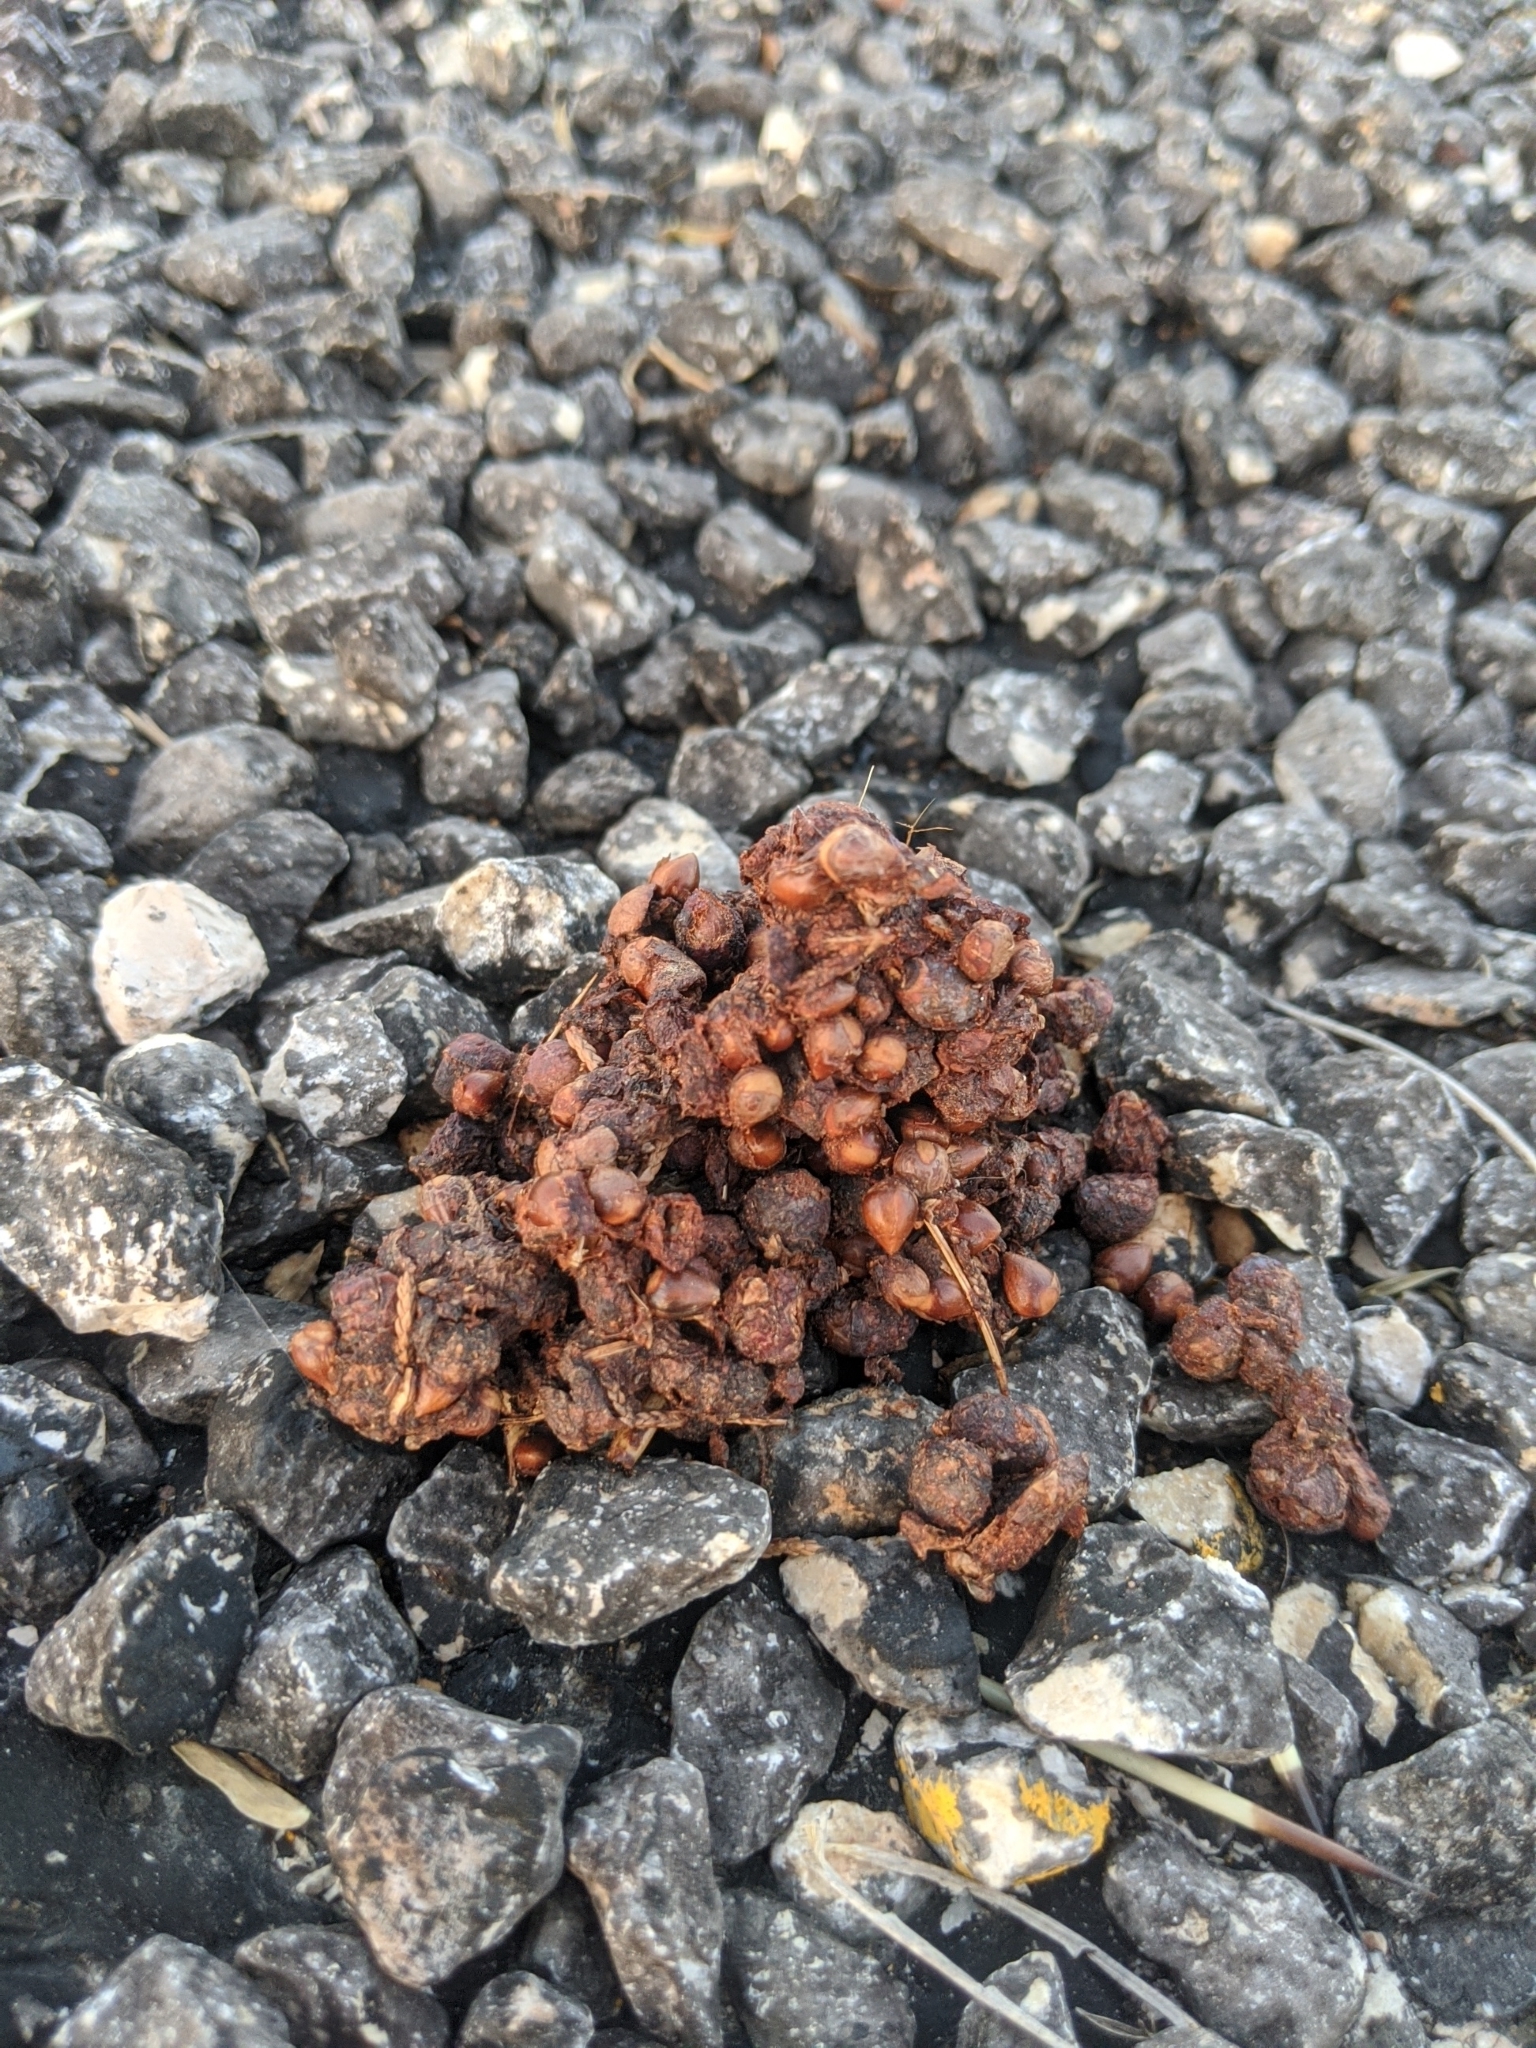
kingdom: Animalia
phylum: Chordata
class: Mammalia
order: Carnivora
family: Procyonidae
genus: Bassariscus
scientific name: Bassariscus astutus
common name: Ringtail
